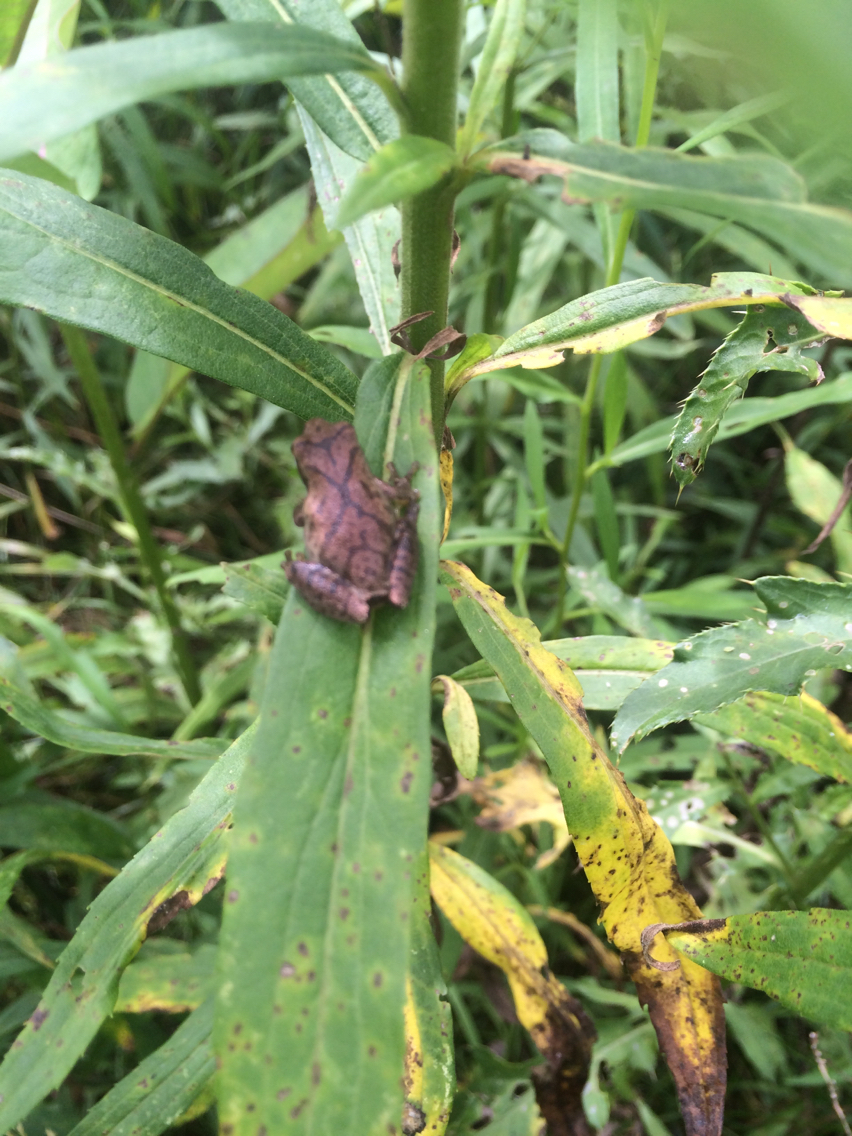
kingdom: Animalia
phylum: Chordata
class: Amphibia
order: Anura
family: Hylidae
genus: Pseudacris
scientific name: Pseudacris crucifer
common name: Spring peeper
